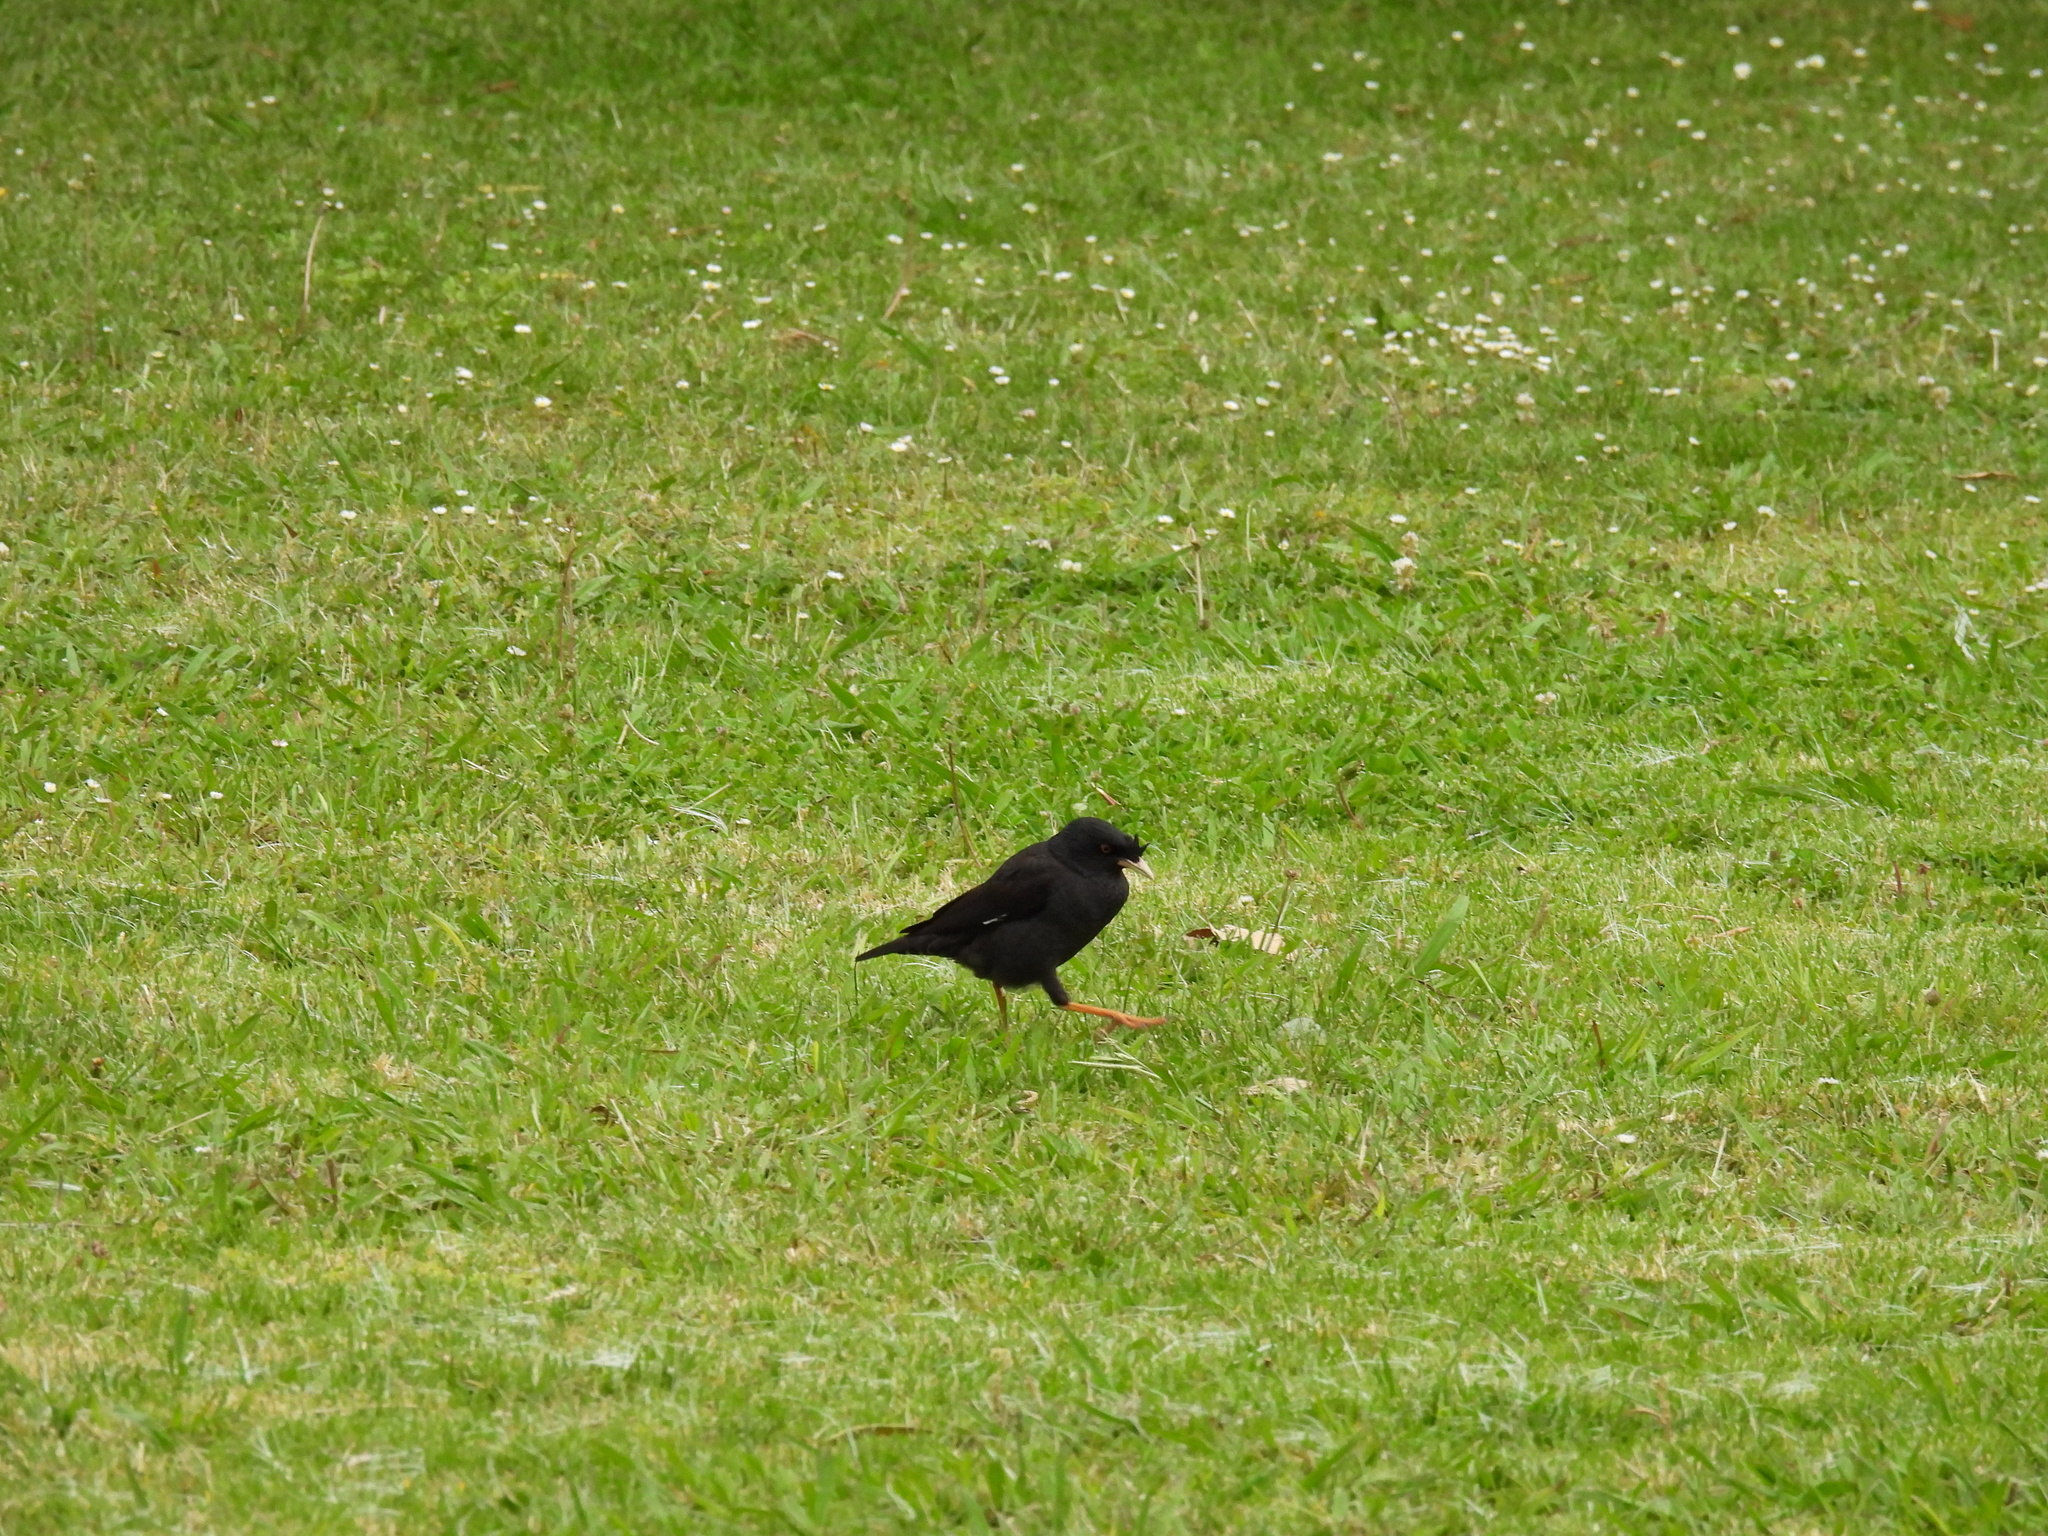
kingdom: Animalia
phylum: Chordata
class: Aves
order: Passeriformes
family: Sturnidae
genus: Acridotheres
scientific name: Acridotheres cristatellus
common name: Crested myna
